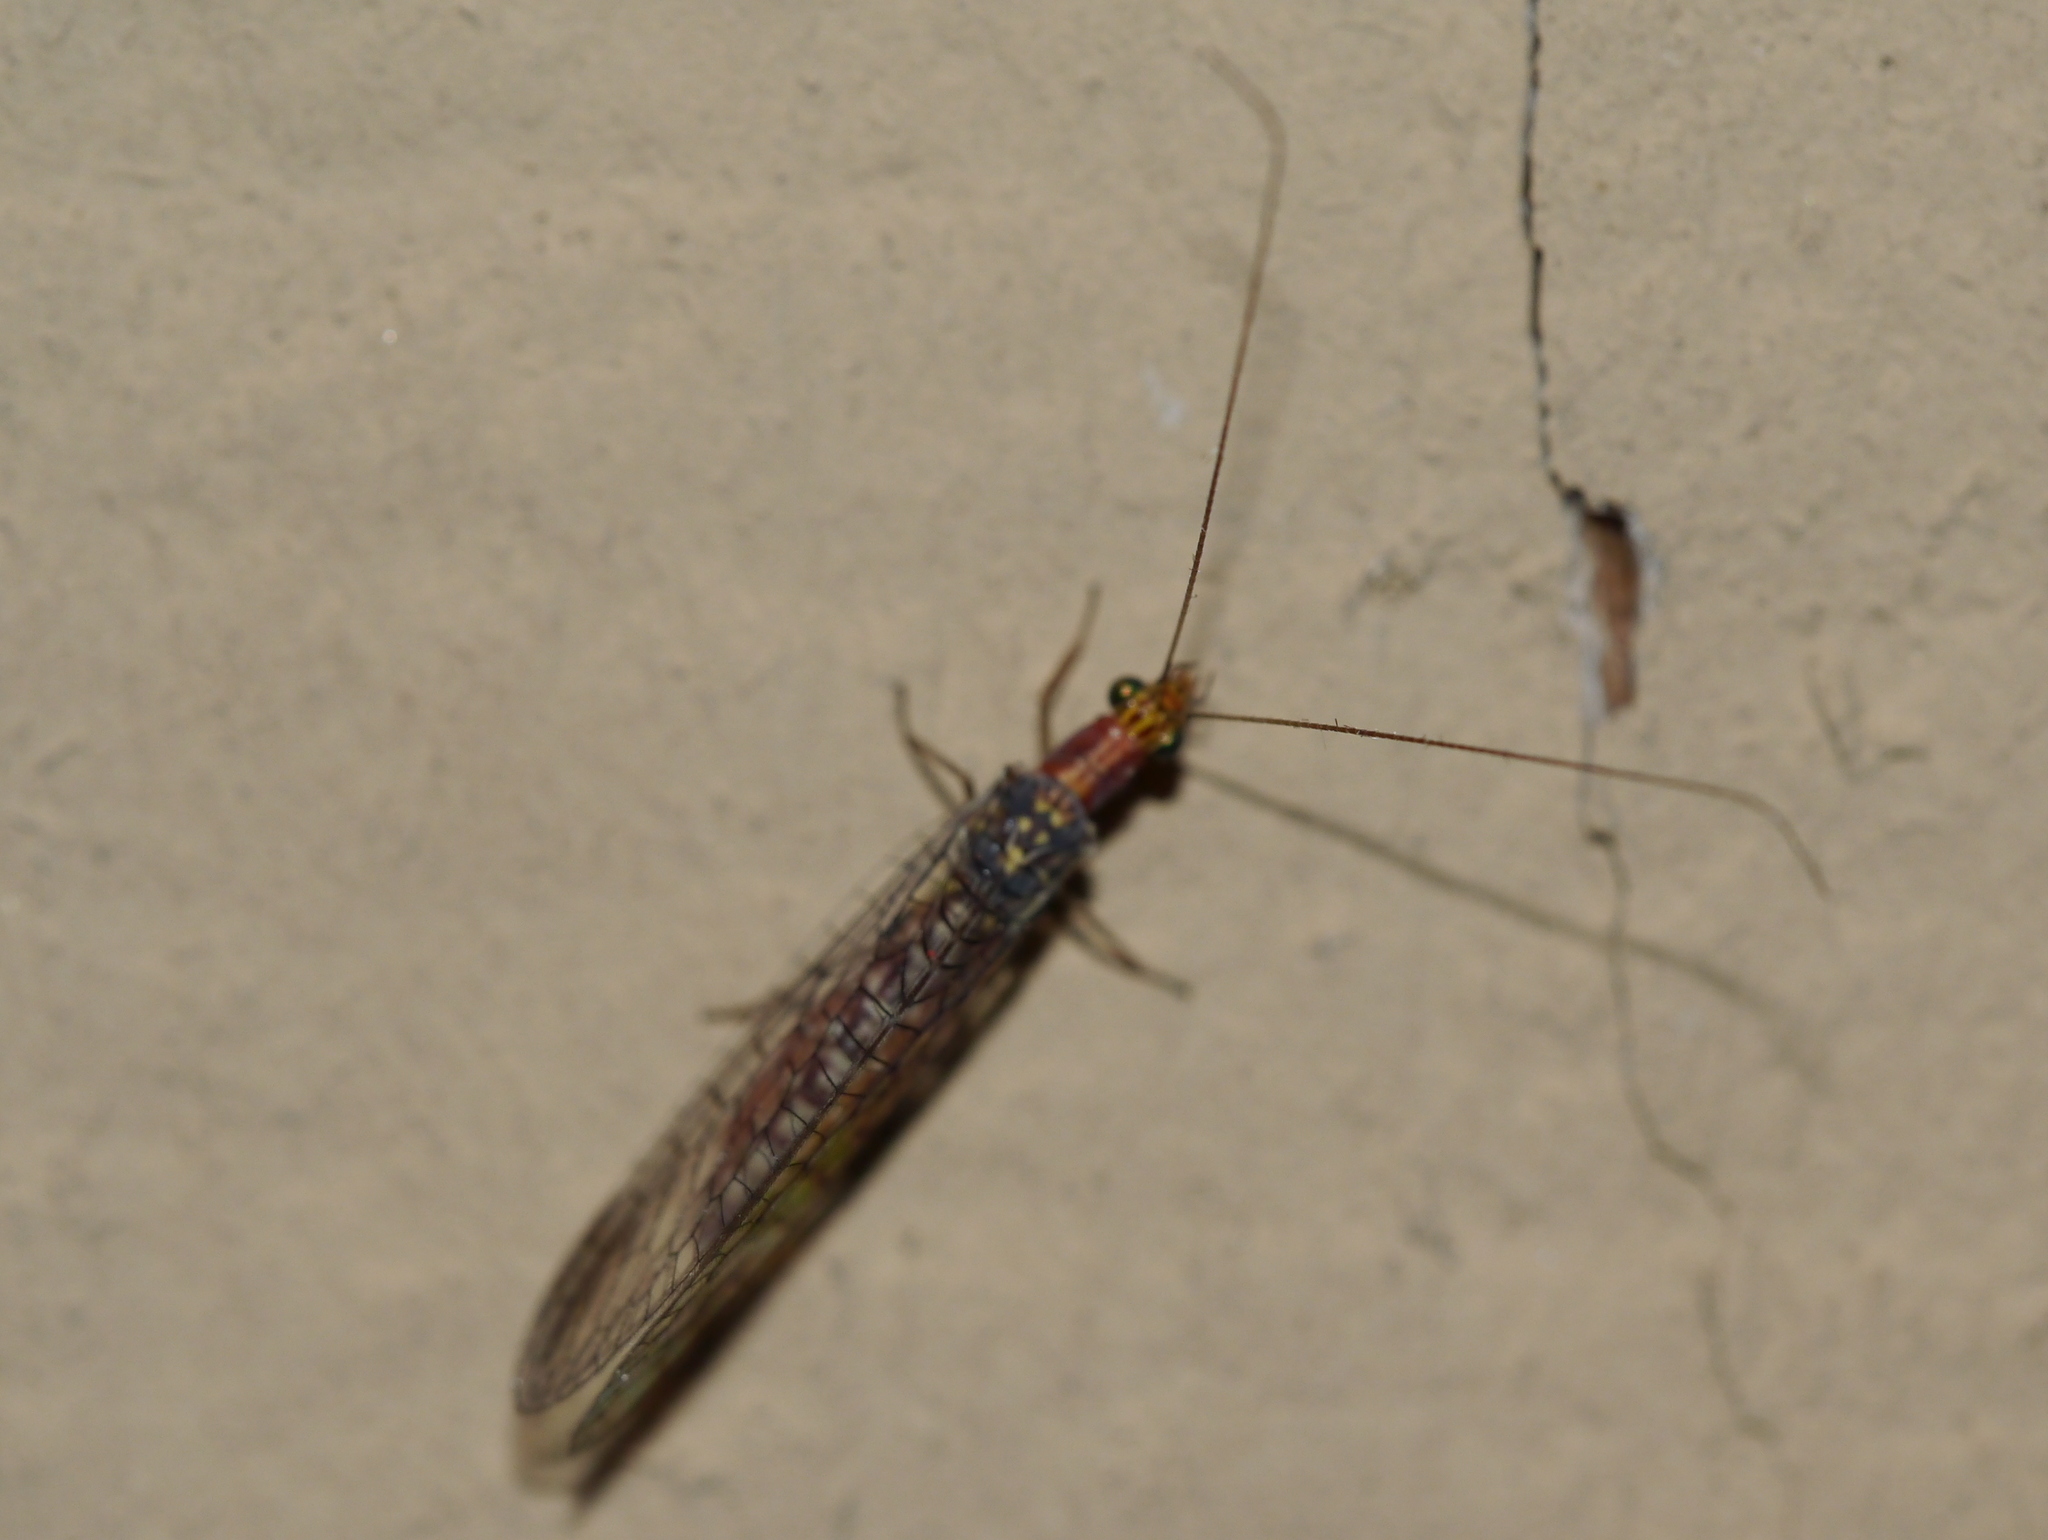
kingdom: Animalia
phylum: Arthropoda
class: Insecta
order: Neuroptera
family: Chrysopidae
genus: Eremochrysa
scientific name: Eremochrysa punctinervis
